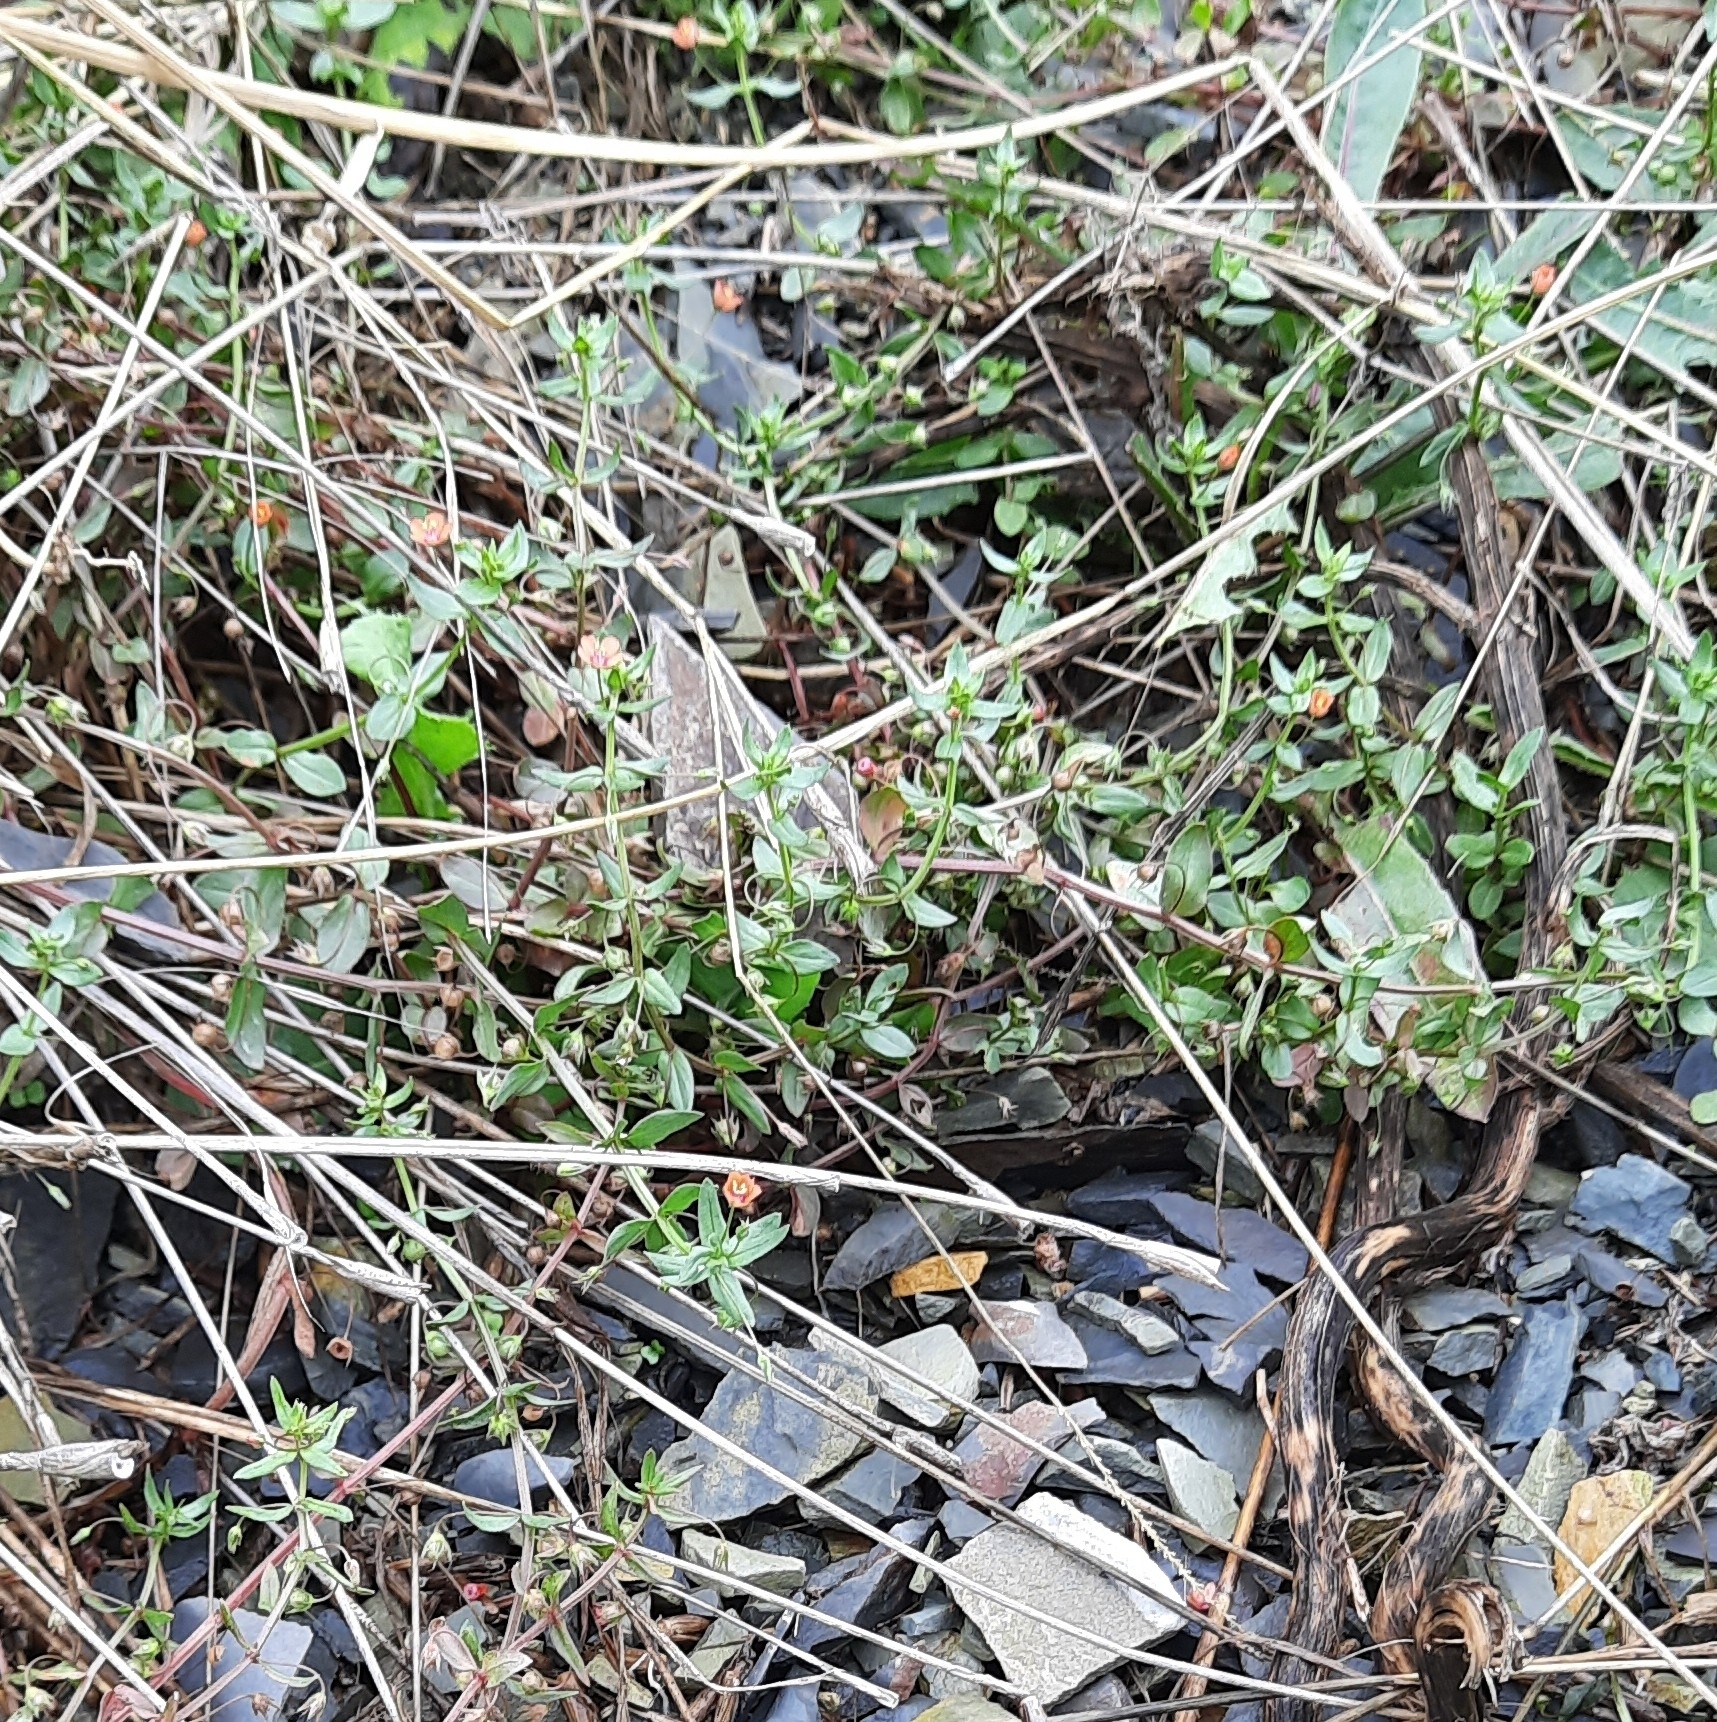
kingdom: Plantae
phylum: Tracheophyta
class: Magnoliopsida
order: Ericales
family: Primulaceae
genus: Lysimachia
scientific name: Lysimachia arvensis
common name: Scarlet pimpernel
